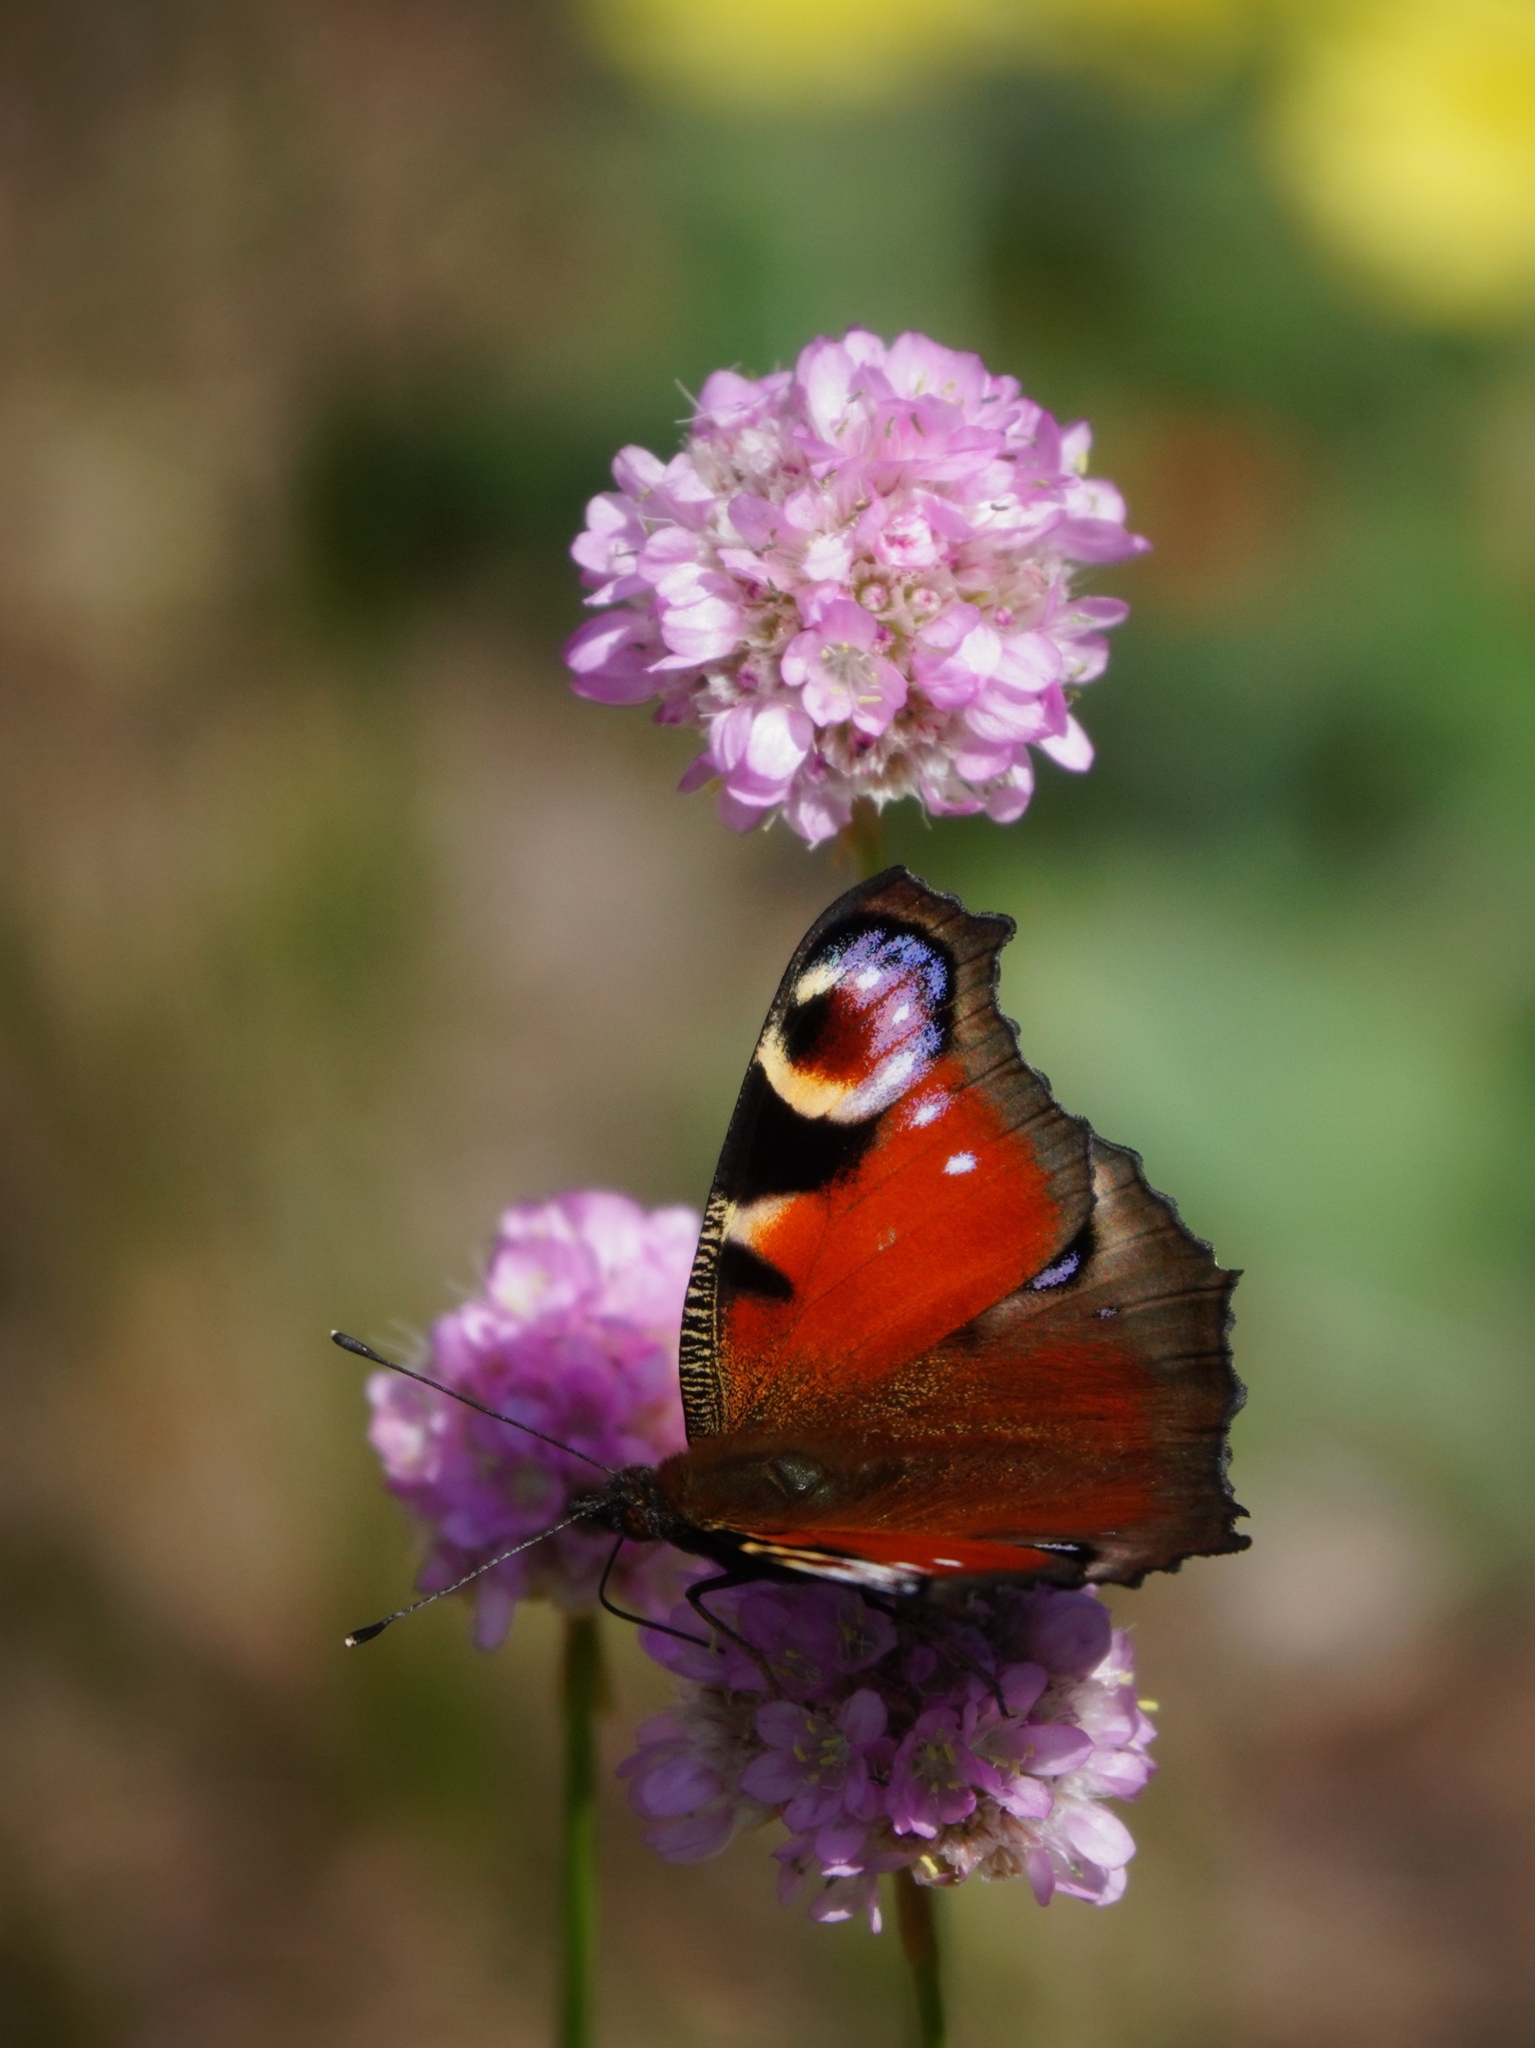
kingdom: Animalia
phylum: Arthropoda
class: Insecta
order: Lepidoptera
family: Nymphalidae
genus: Aglais
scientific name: Aglais io
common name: Peacock
